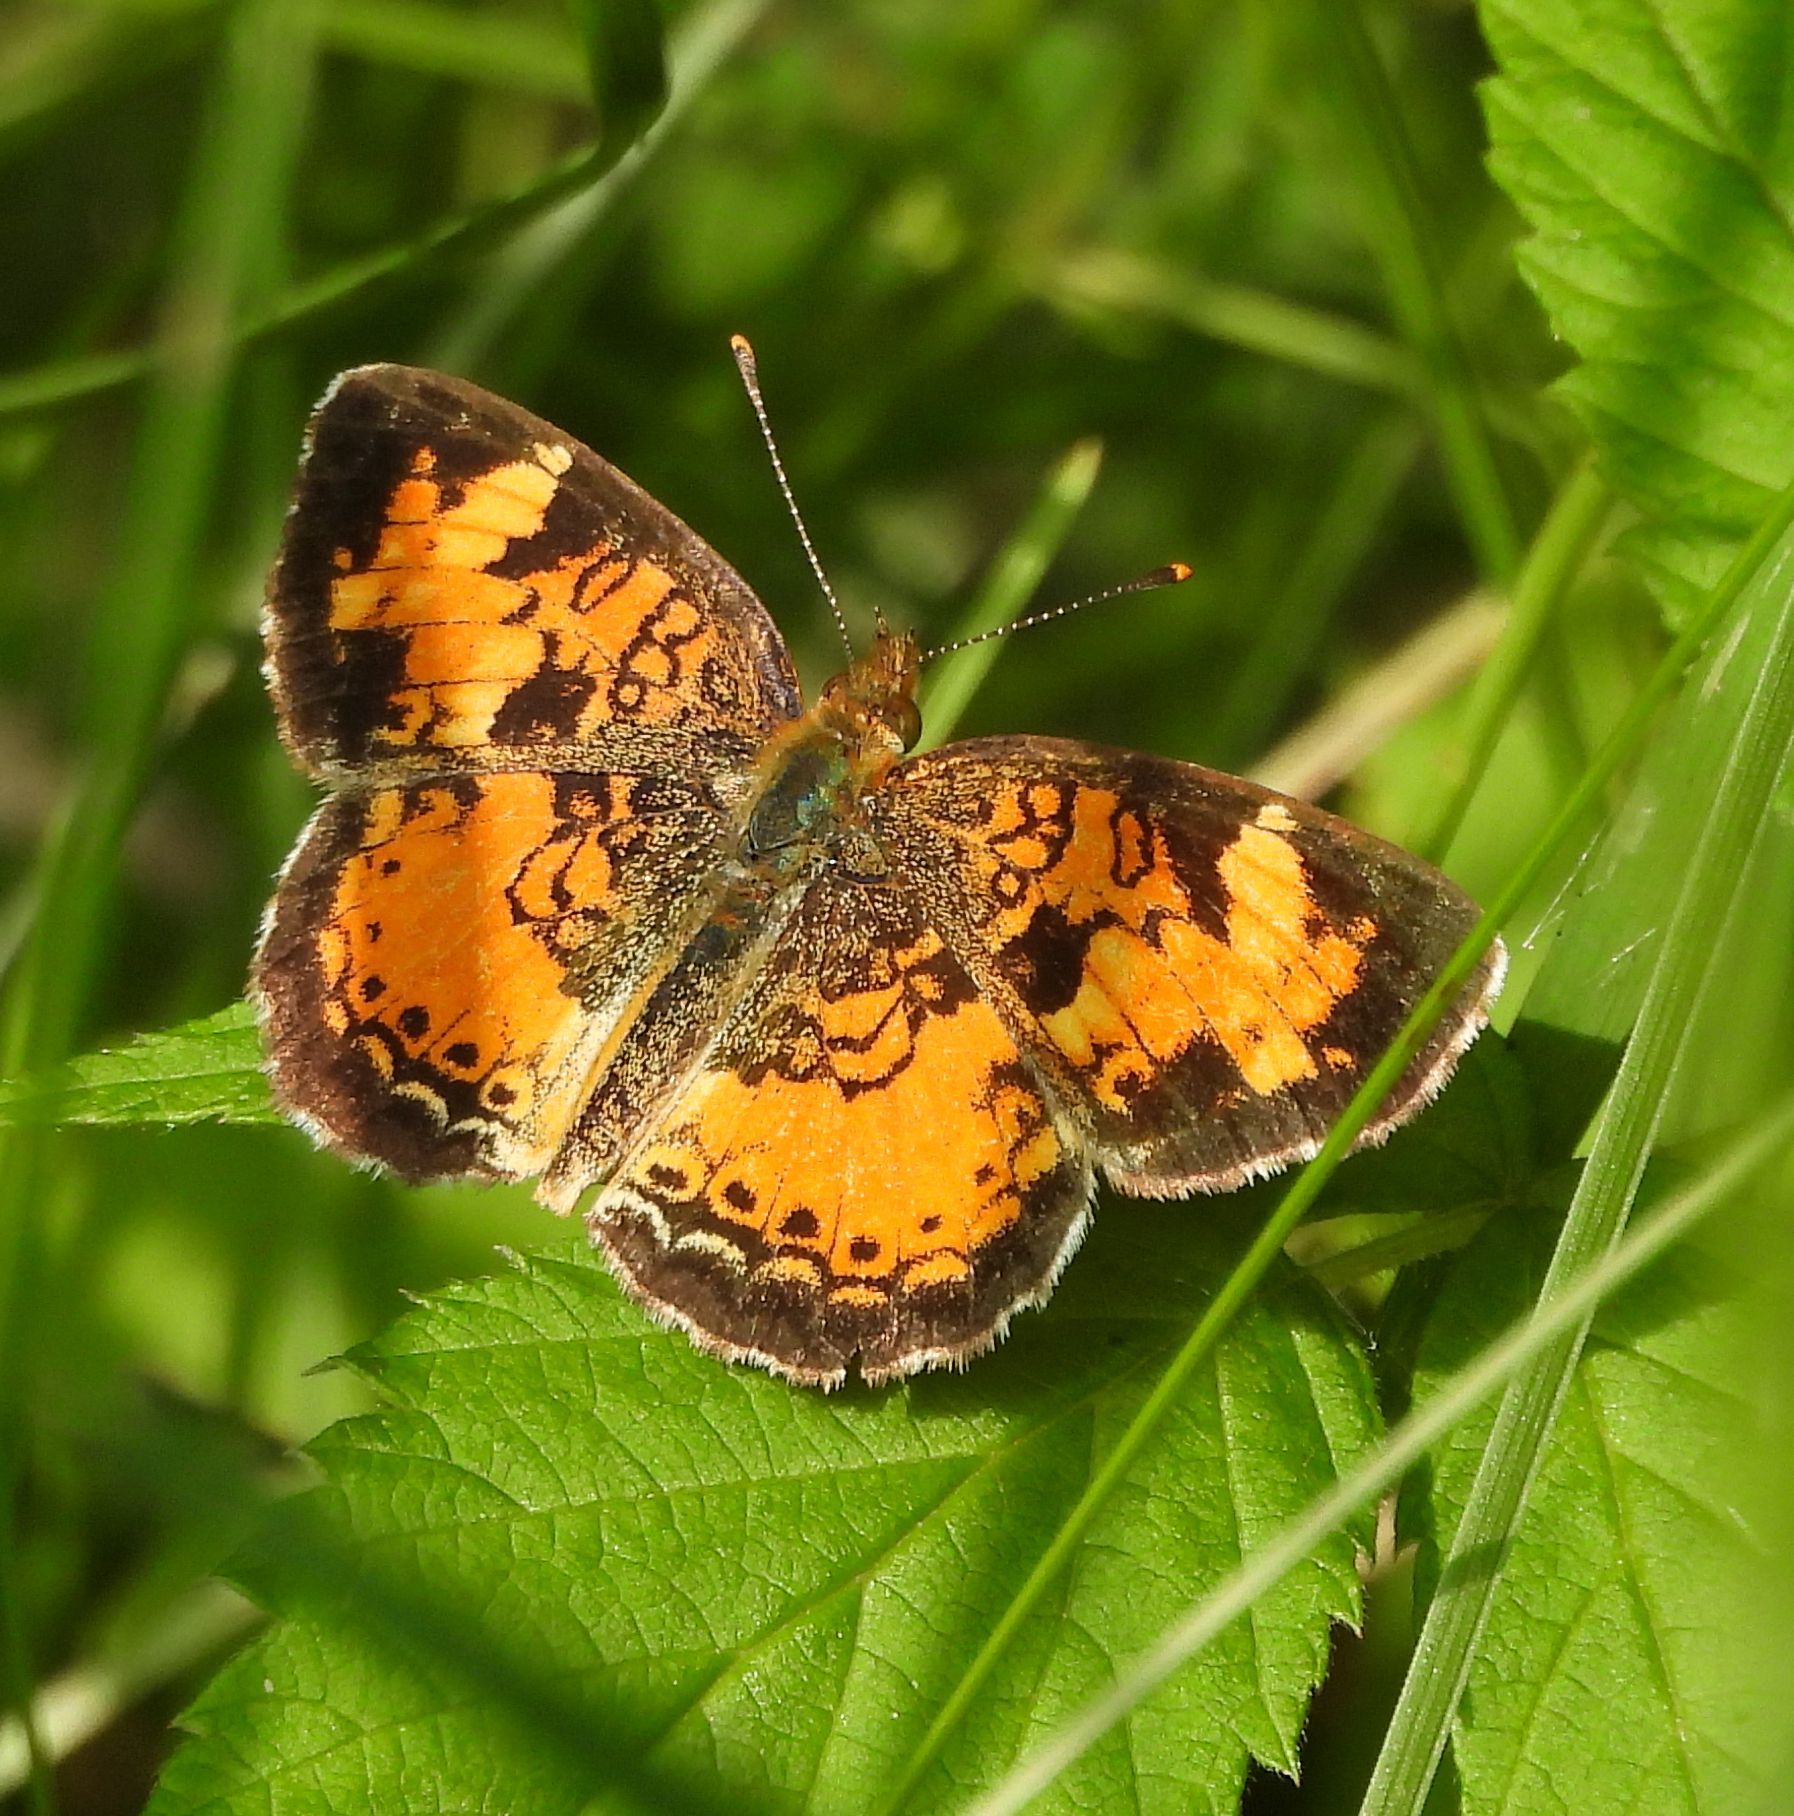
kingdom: Animalia
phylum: Arthropoda
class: Insecta
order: Lepidoptera
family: Nymphalidae
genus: Phyciodes
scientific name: Phyciodes tharos
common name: Pearl crescent
